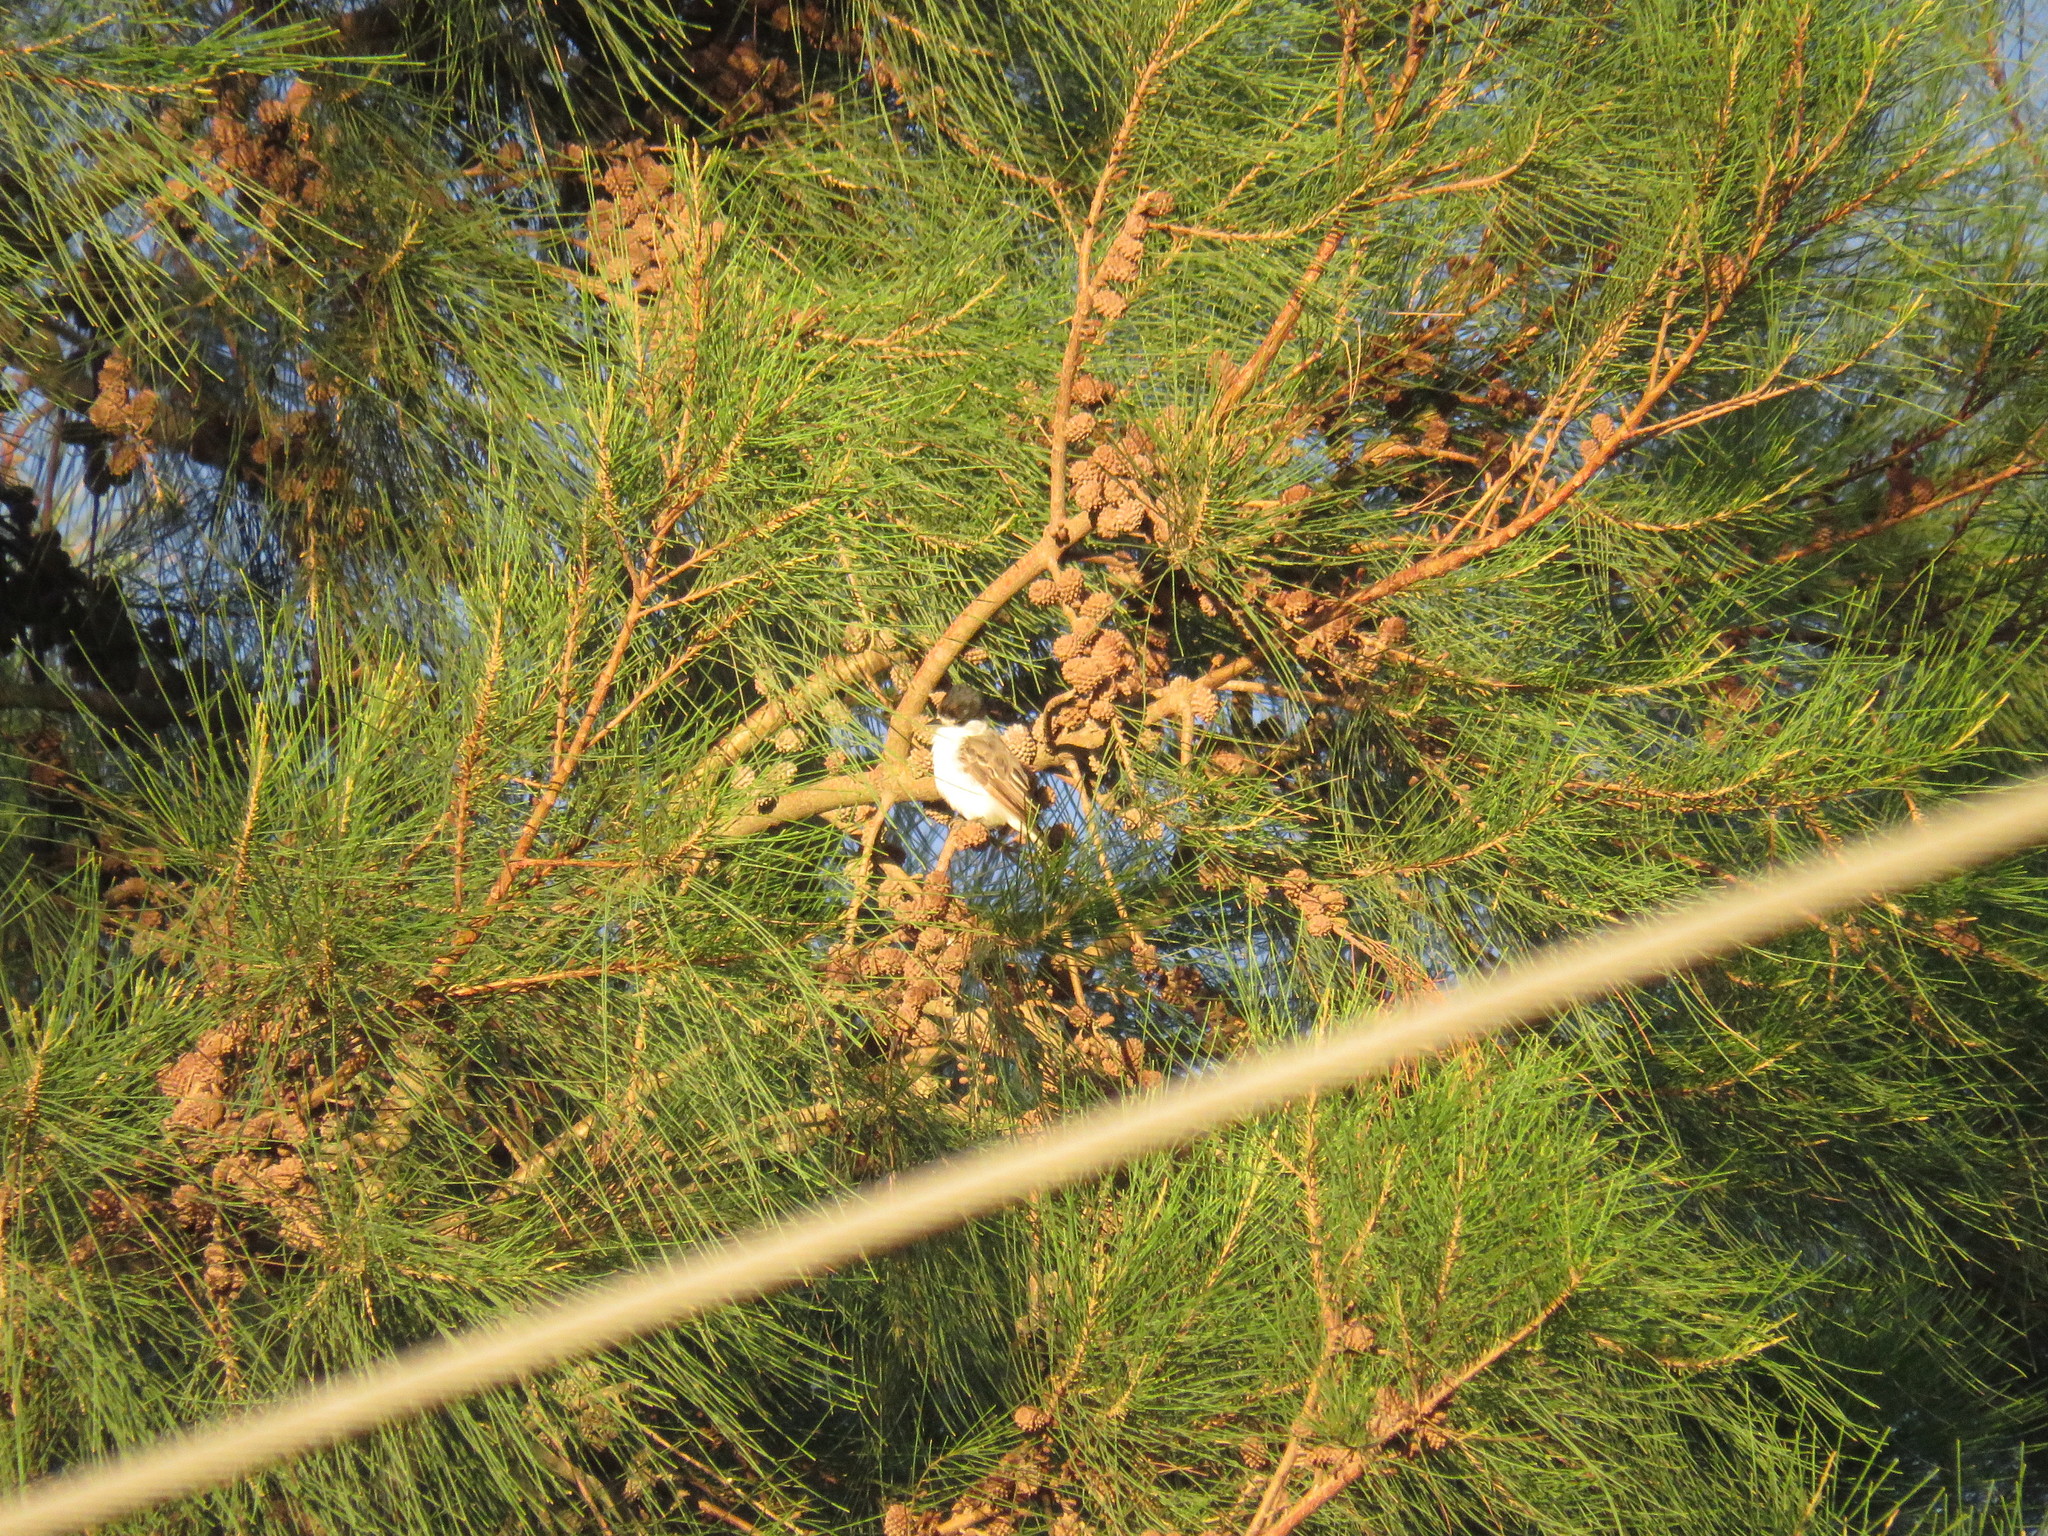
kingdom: Animalia
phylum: Chordata
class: Aves
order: Passeriformes
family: Cotingidae
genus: Xenopsaris
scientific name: Xenopsaris albinucha
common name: White-naped xenopsaris
